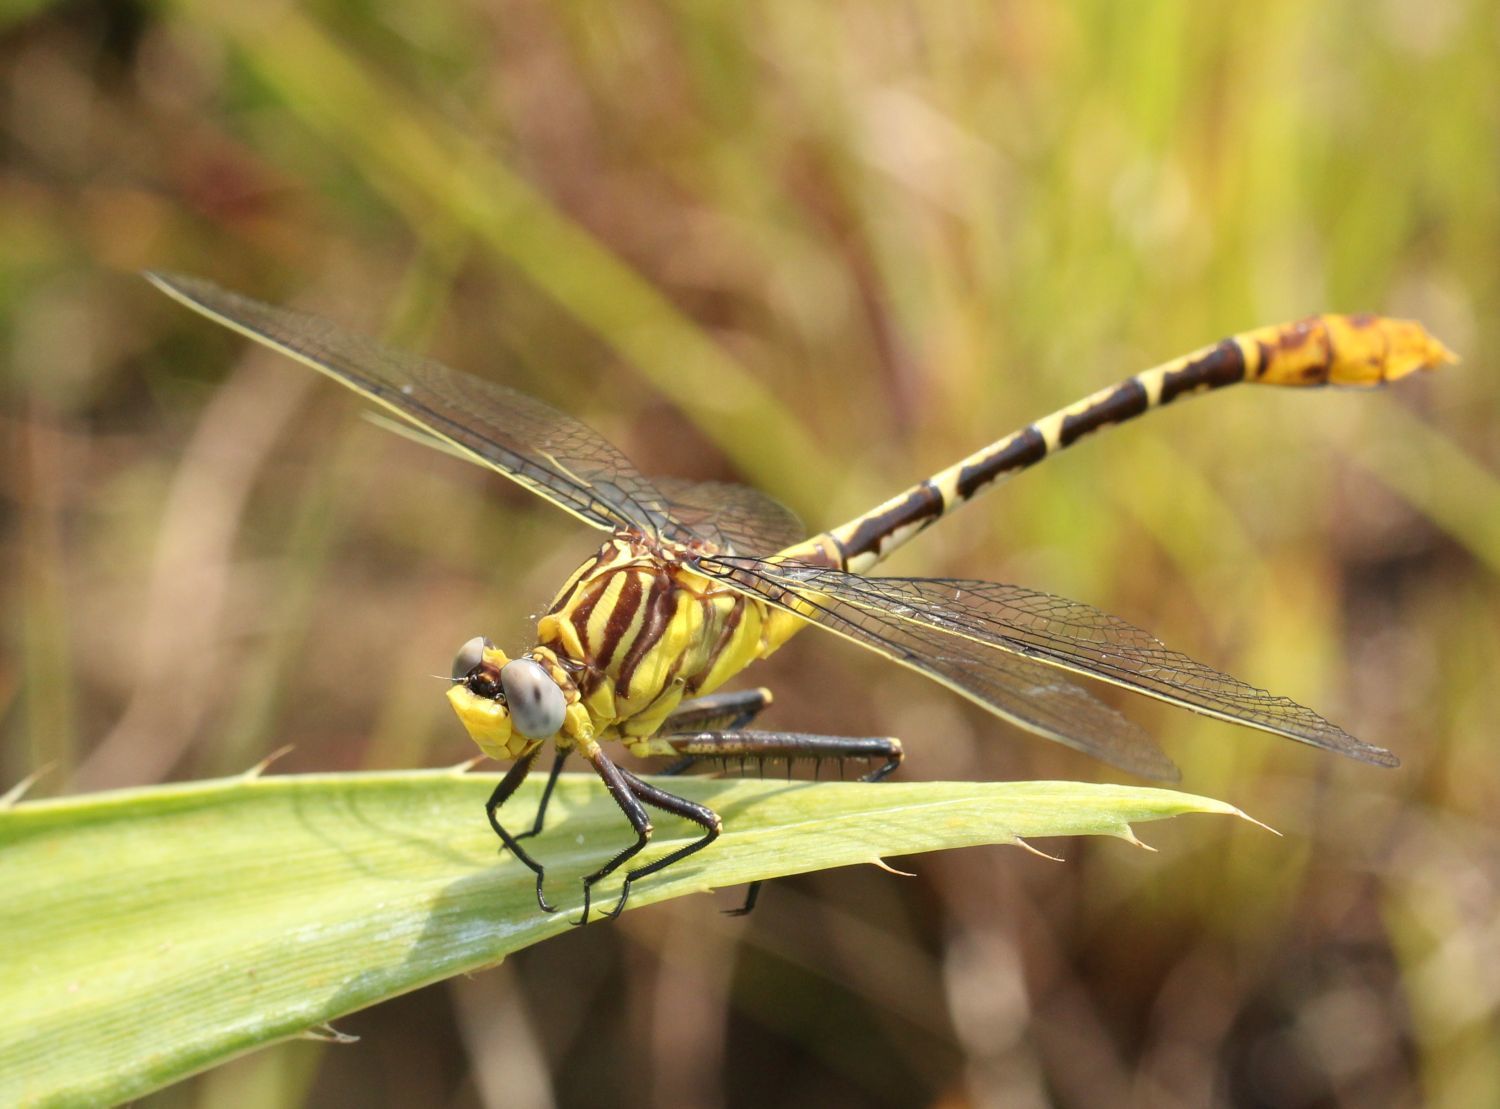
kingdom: Animalia
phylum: Arthropoda
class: Insecta
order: Odonata
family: Gomphidae
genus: Dromogomphus
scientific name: Dromogomphus spoliatus
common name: Flag-tailed spinyleg
